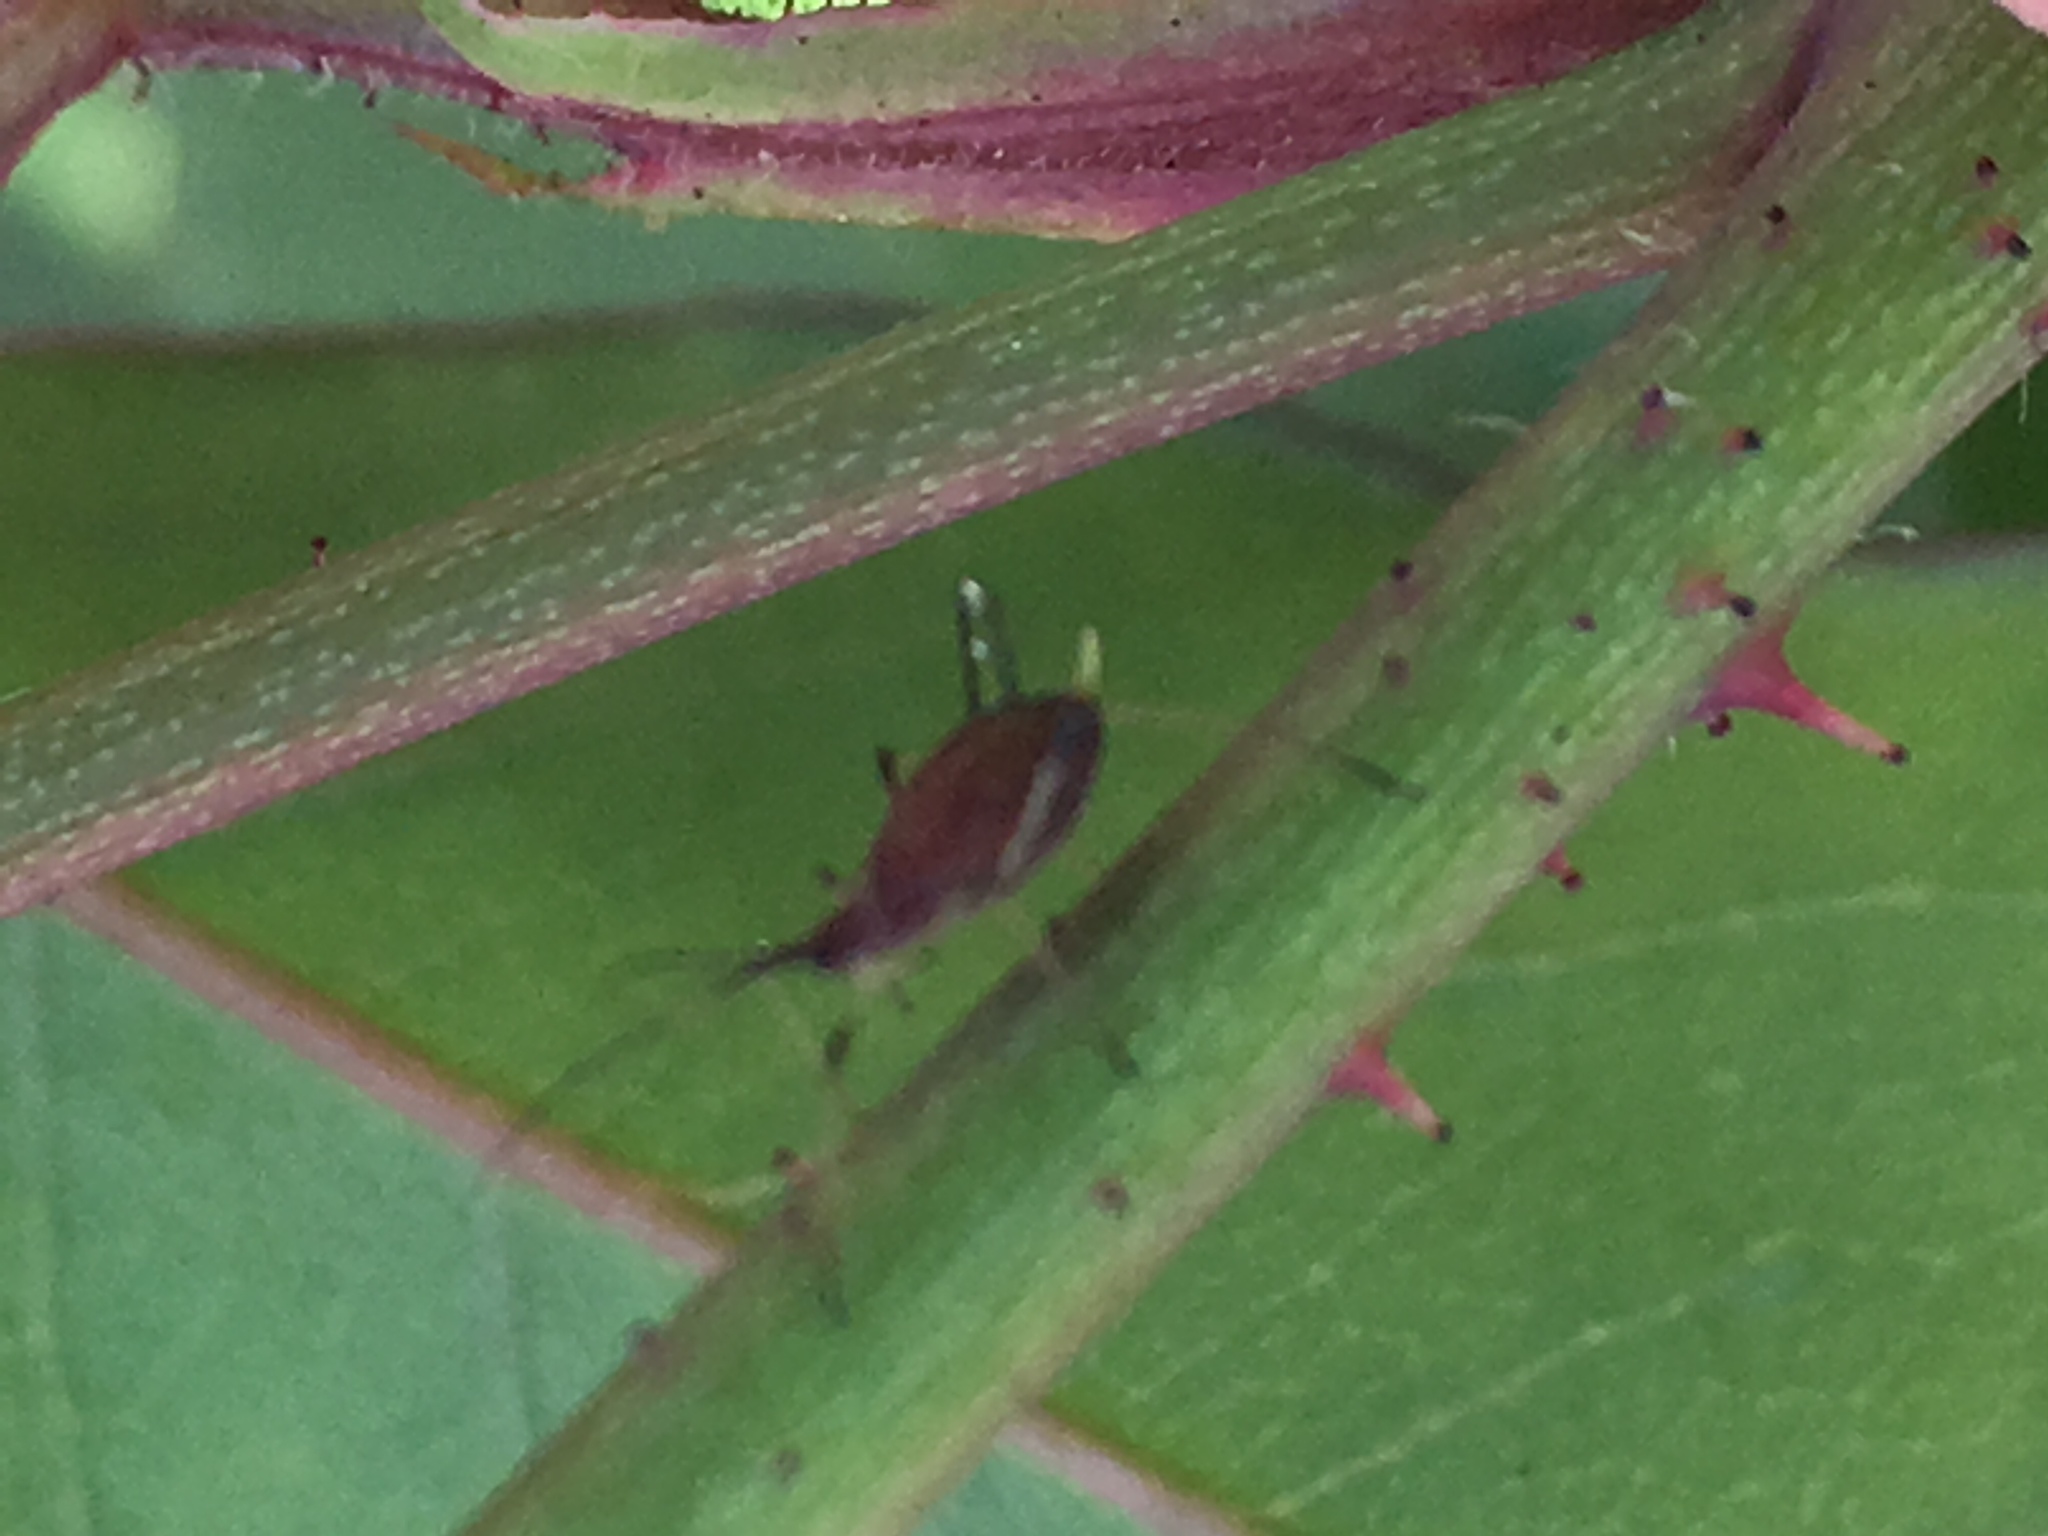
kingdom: Animalia
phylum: Arthropoda
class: Insecta
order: Hemiptera
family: Aphididae
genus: Macrosiphum
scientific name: Macrosiphum rosae
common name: Rose aphid
